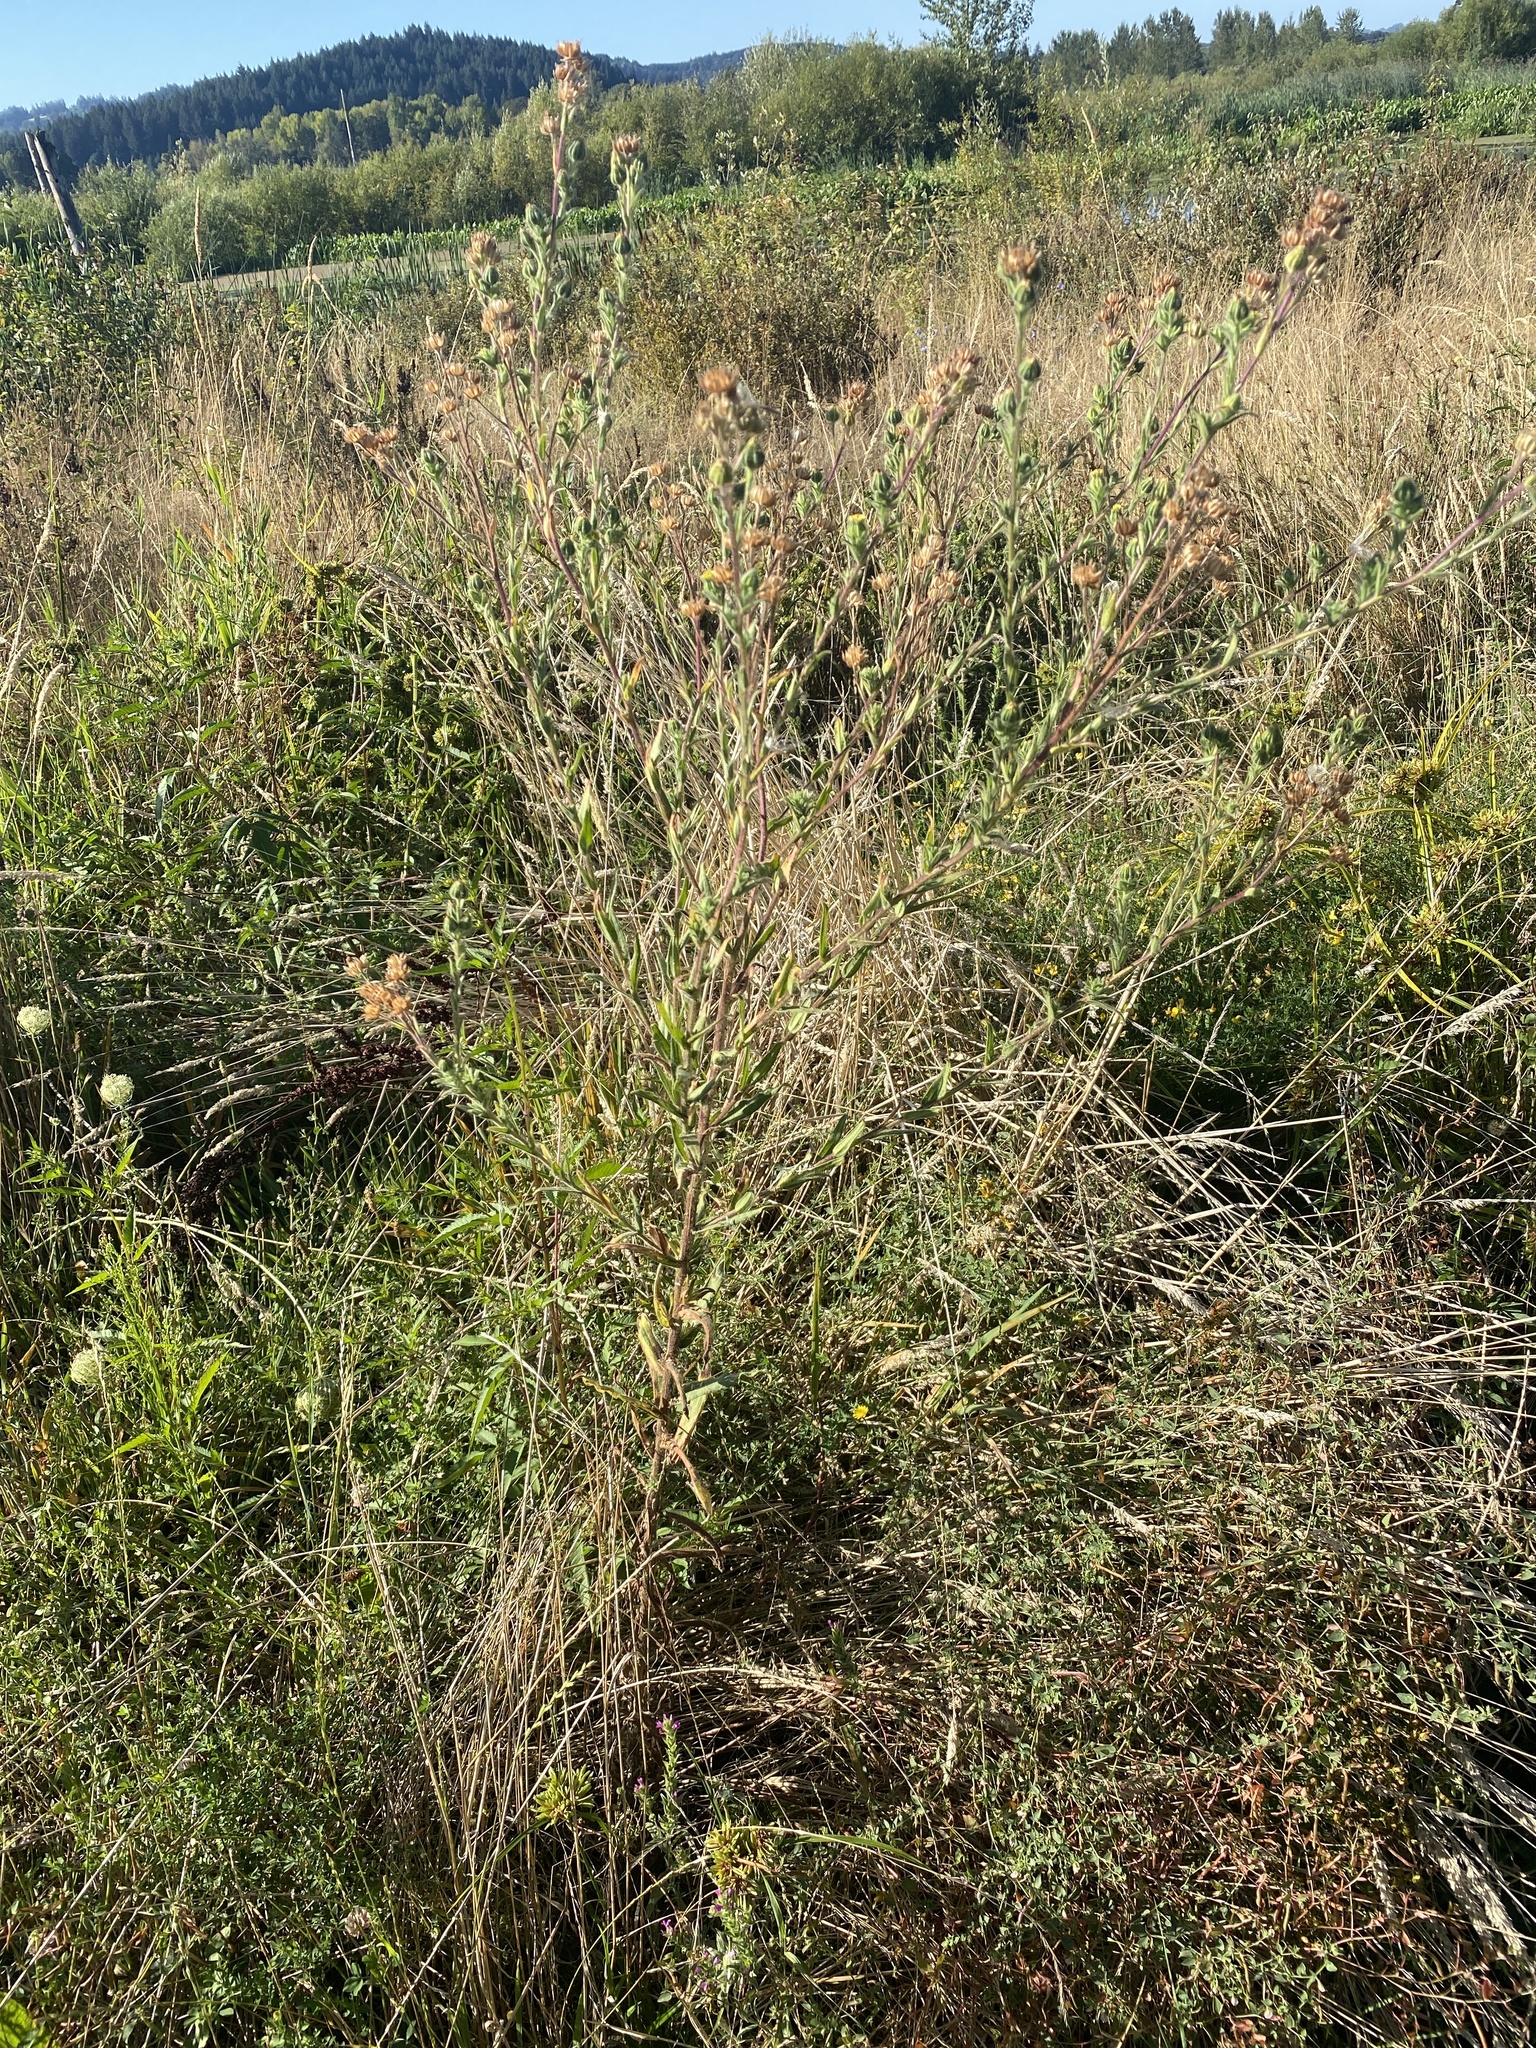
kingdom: Plantae
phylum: Tracheophyta
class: Magnoliopsida
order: Asterales
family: Asteraceae
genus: Madia
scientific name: Madia sativa
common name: Coast tarweed
